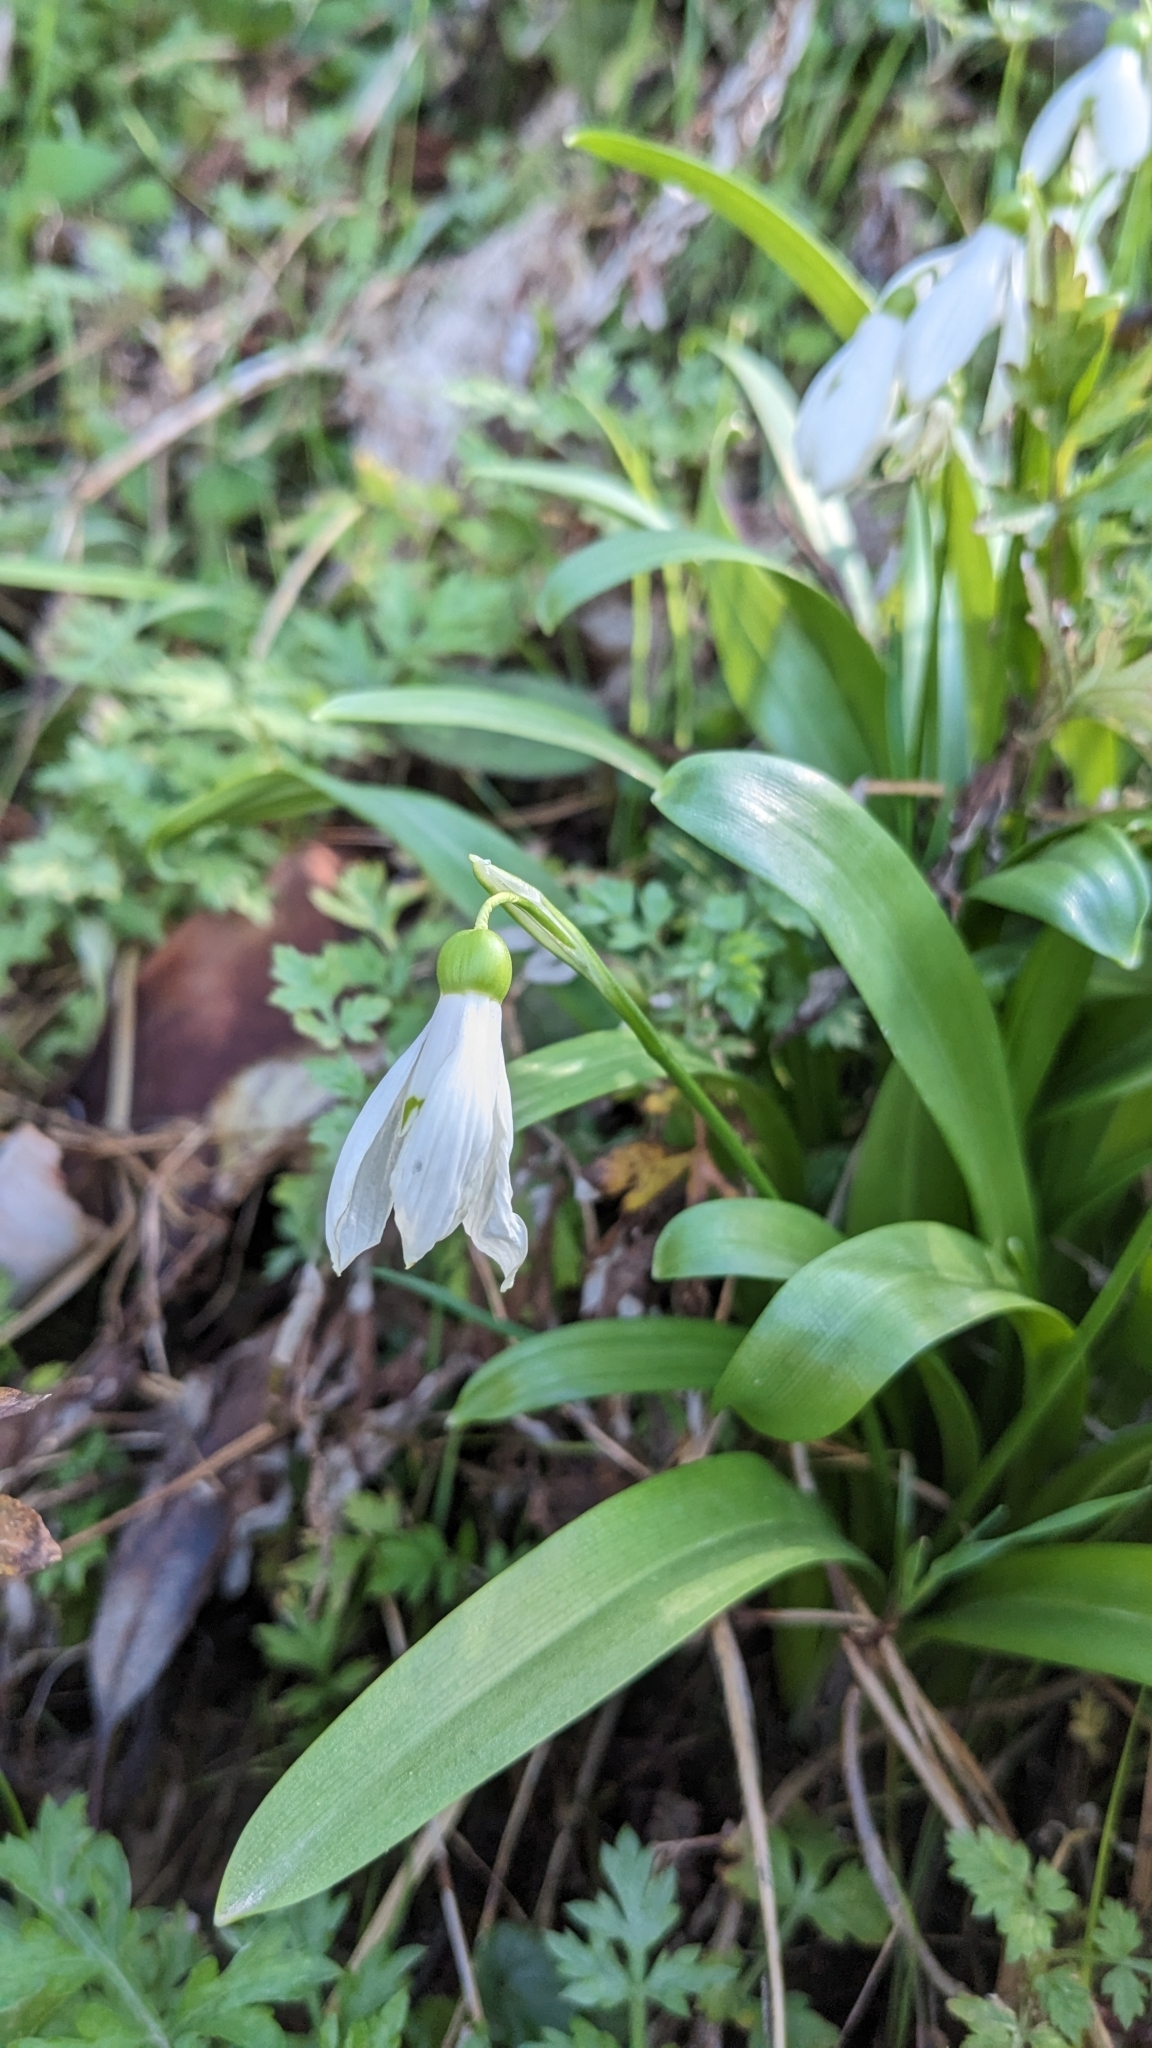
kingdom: Plantae
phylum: Tracheophyta
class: Liliopsida
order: Asparagales
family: Amaryllidaceae
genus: Galanthus
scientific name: Galanthus woronowii
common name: Green snowdrop
